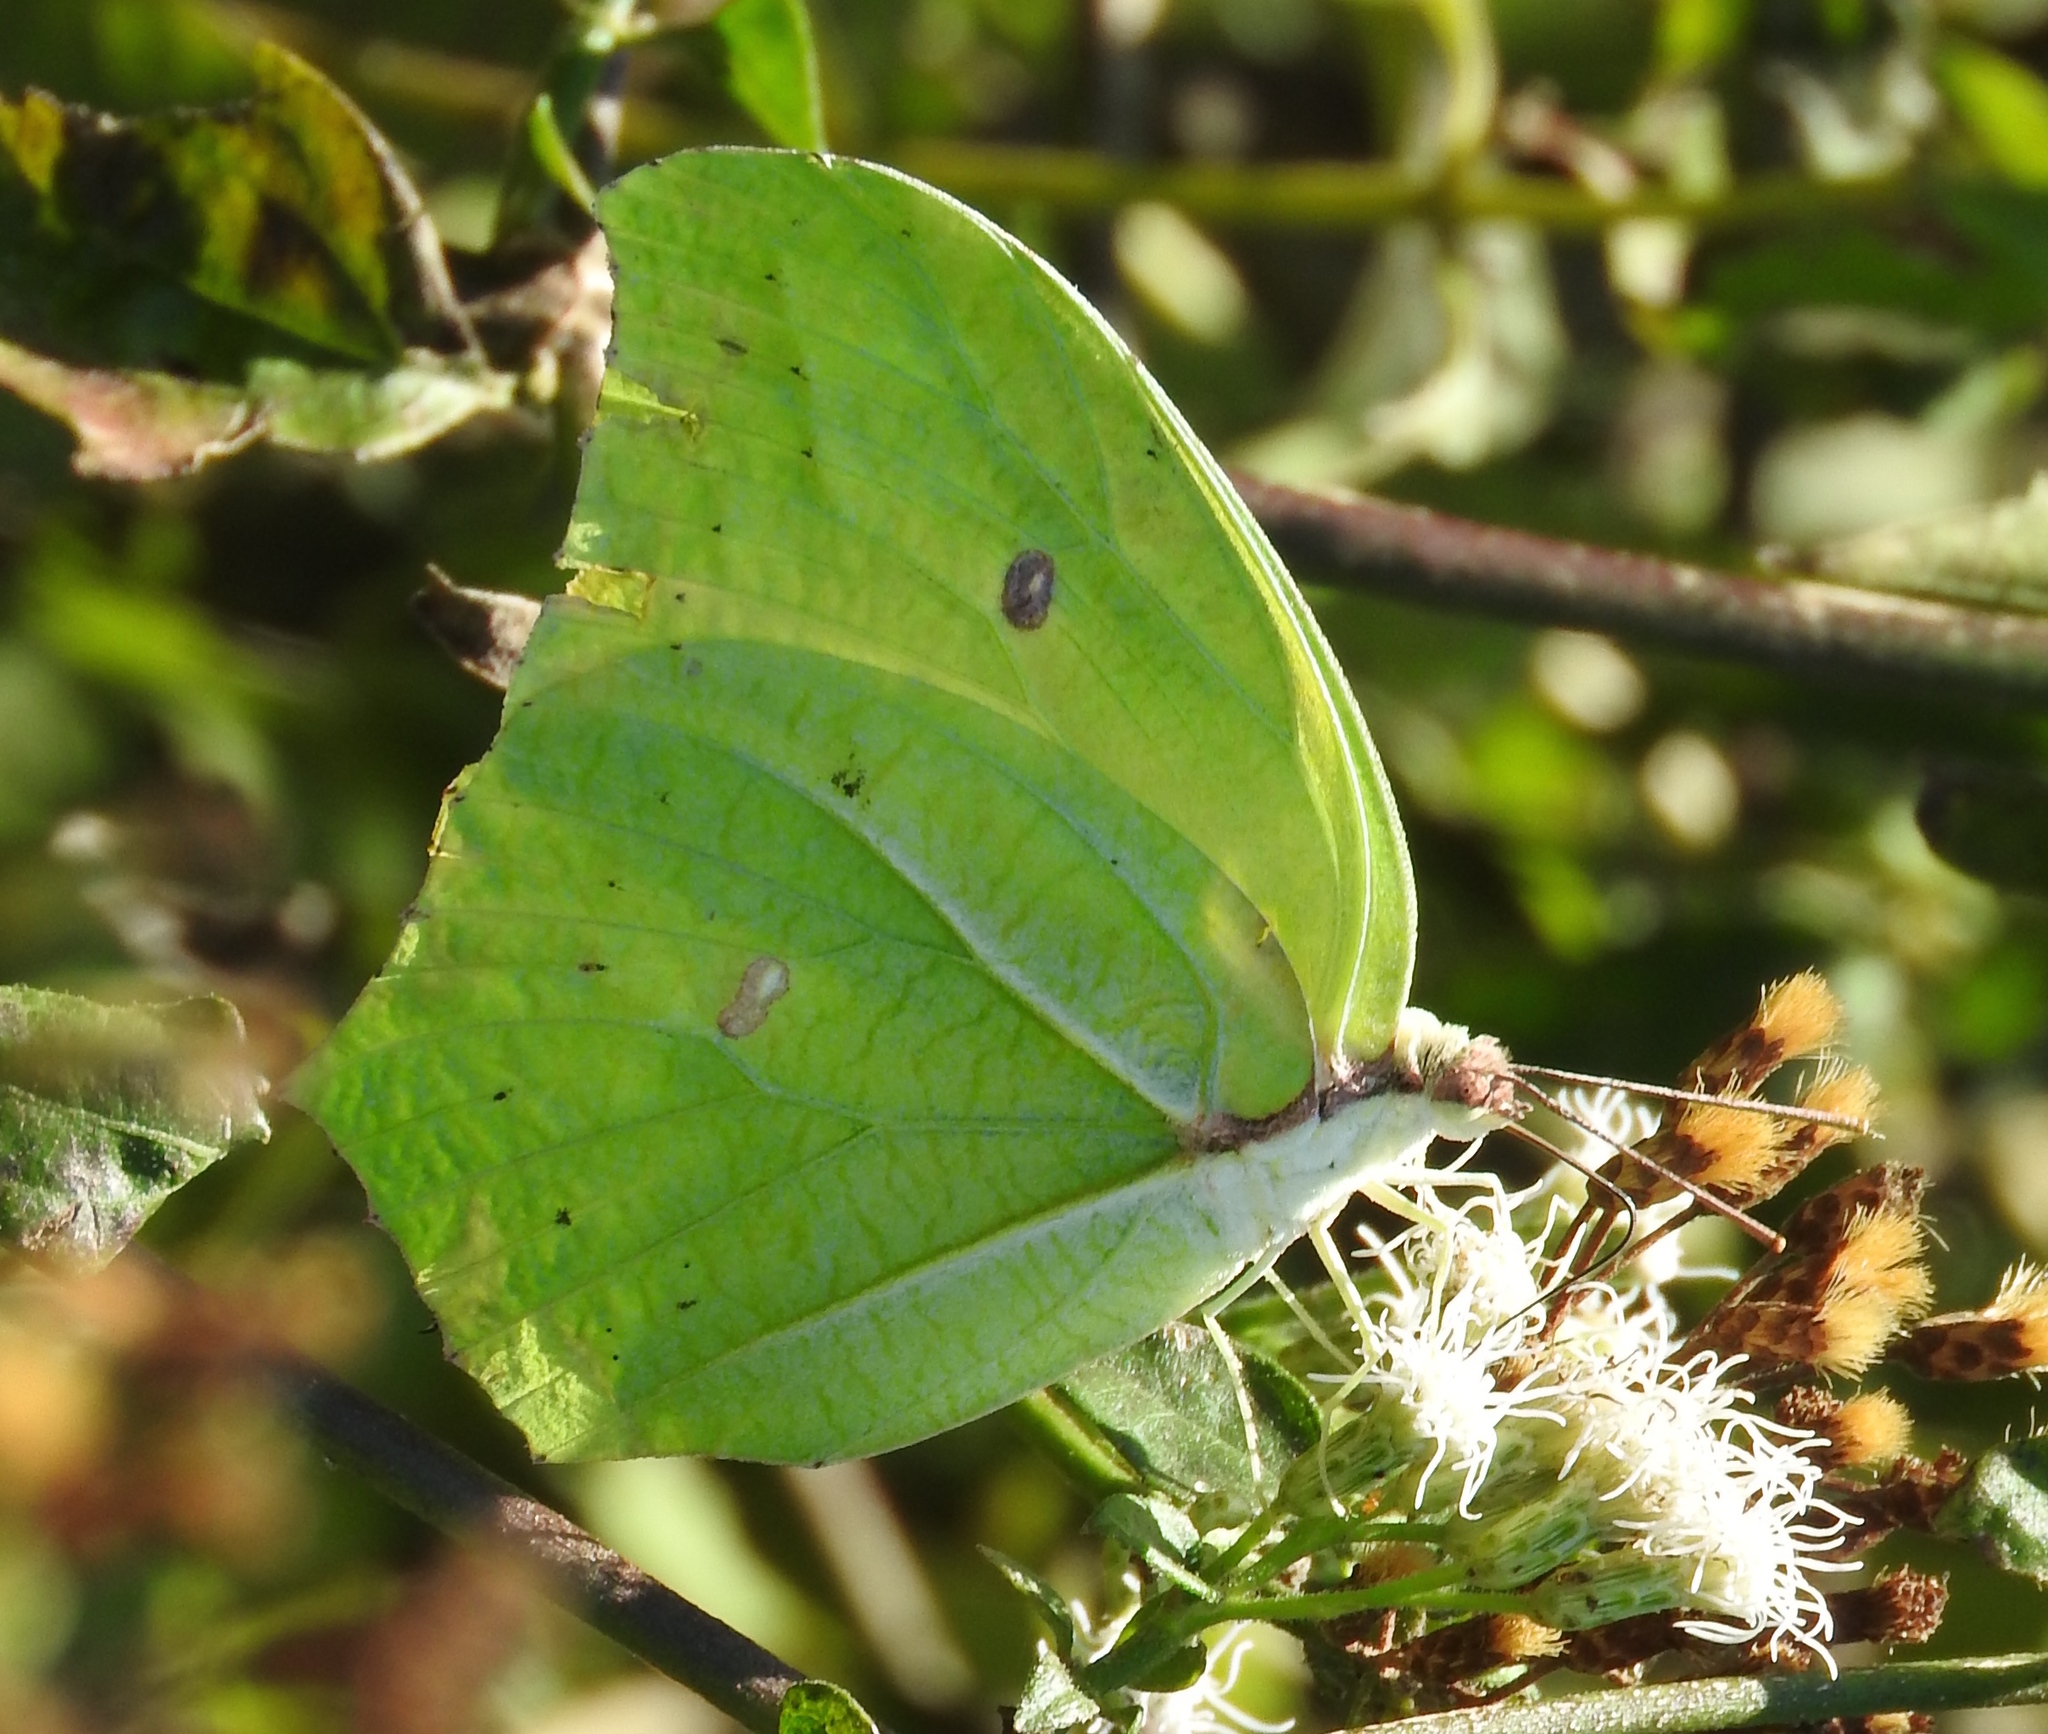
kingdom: Animalia
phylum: Arthropoda
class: Insecta
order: Lepidoptera
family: Pieridae
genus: Anteos
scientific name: Anteos maerula
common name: Angled sulphur
